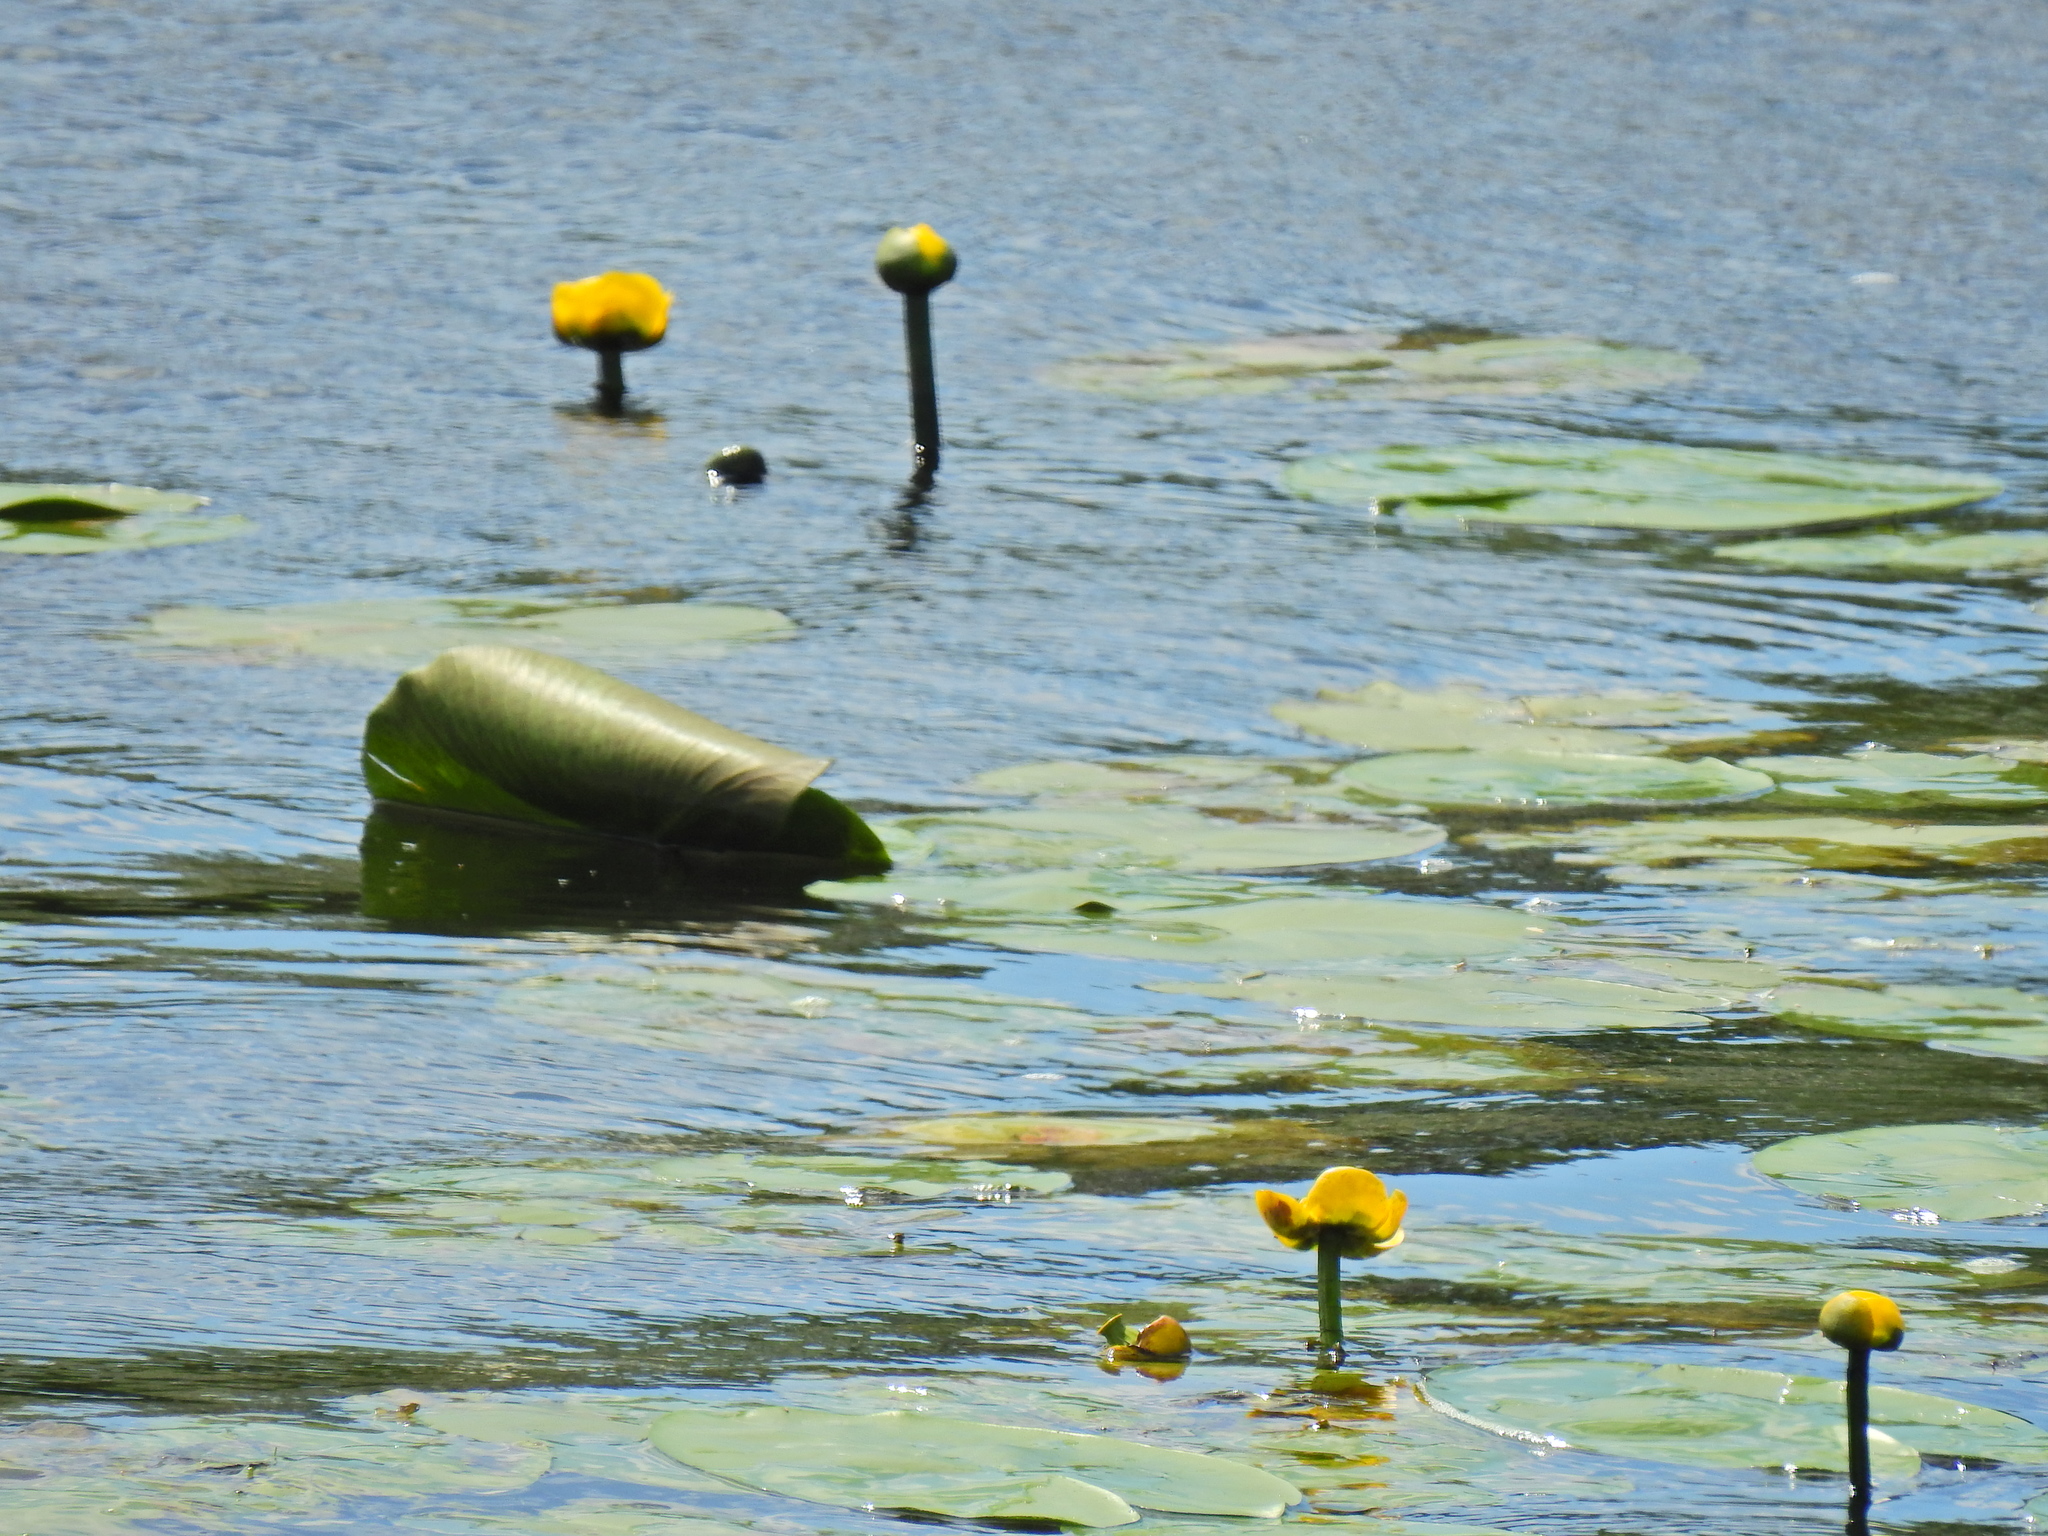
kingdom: Plantae
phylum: Tracheophyta
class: Magnoliopsida
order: Nymphaeales
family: Nymphaeaceae
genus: Nuphar
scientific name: Nuphar lutea
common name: Yellow water-lily
